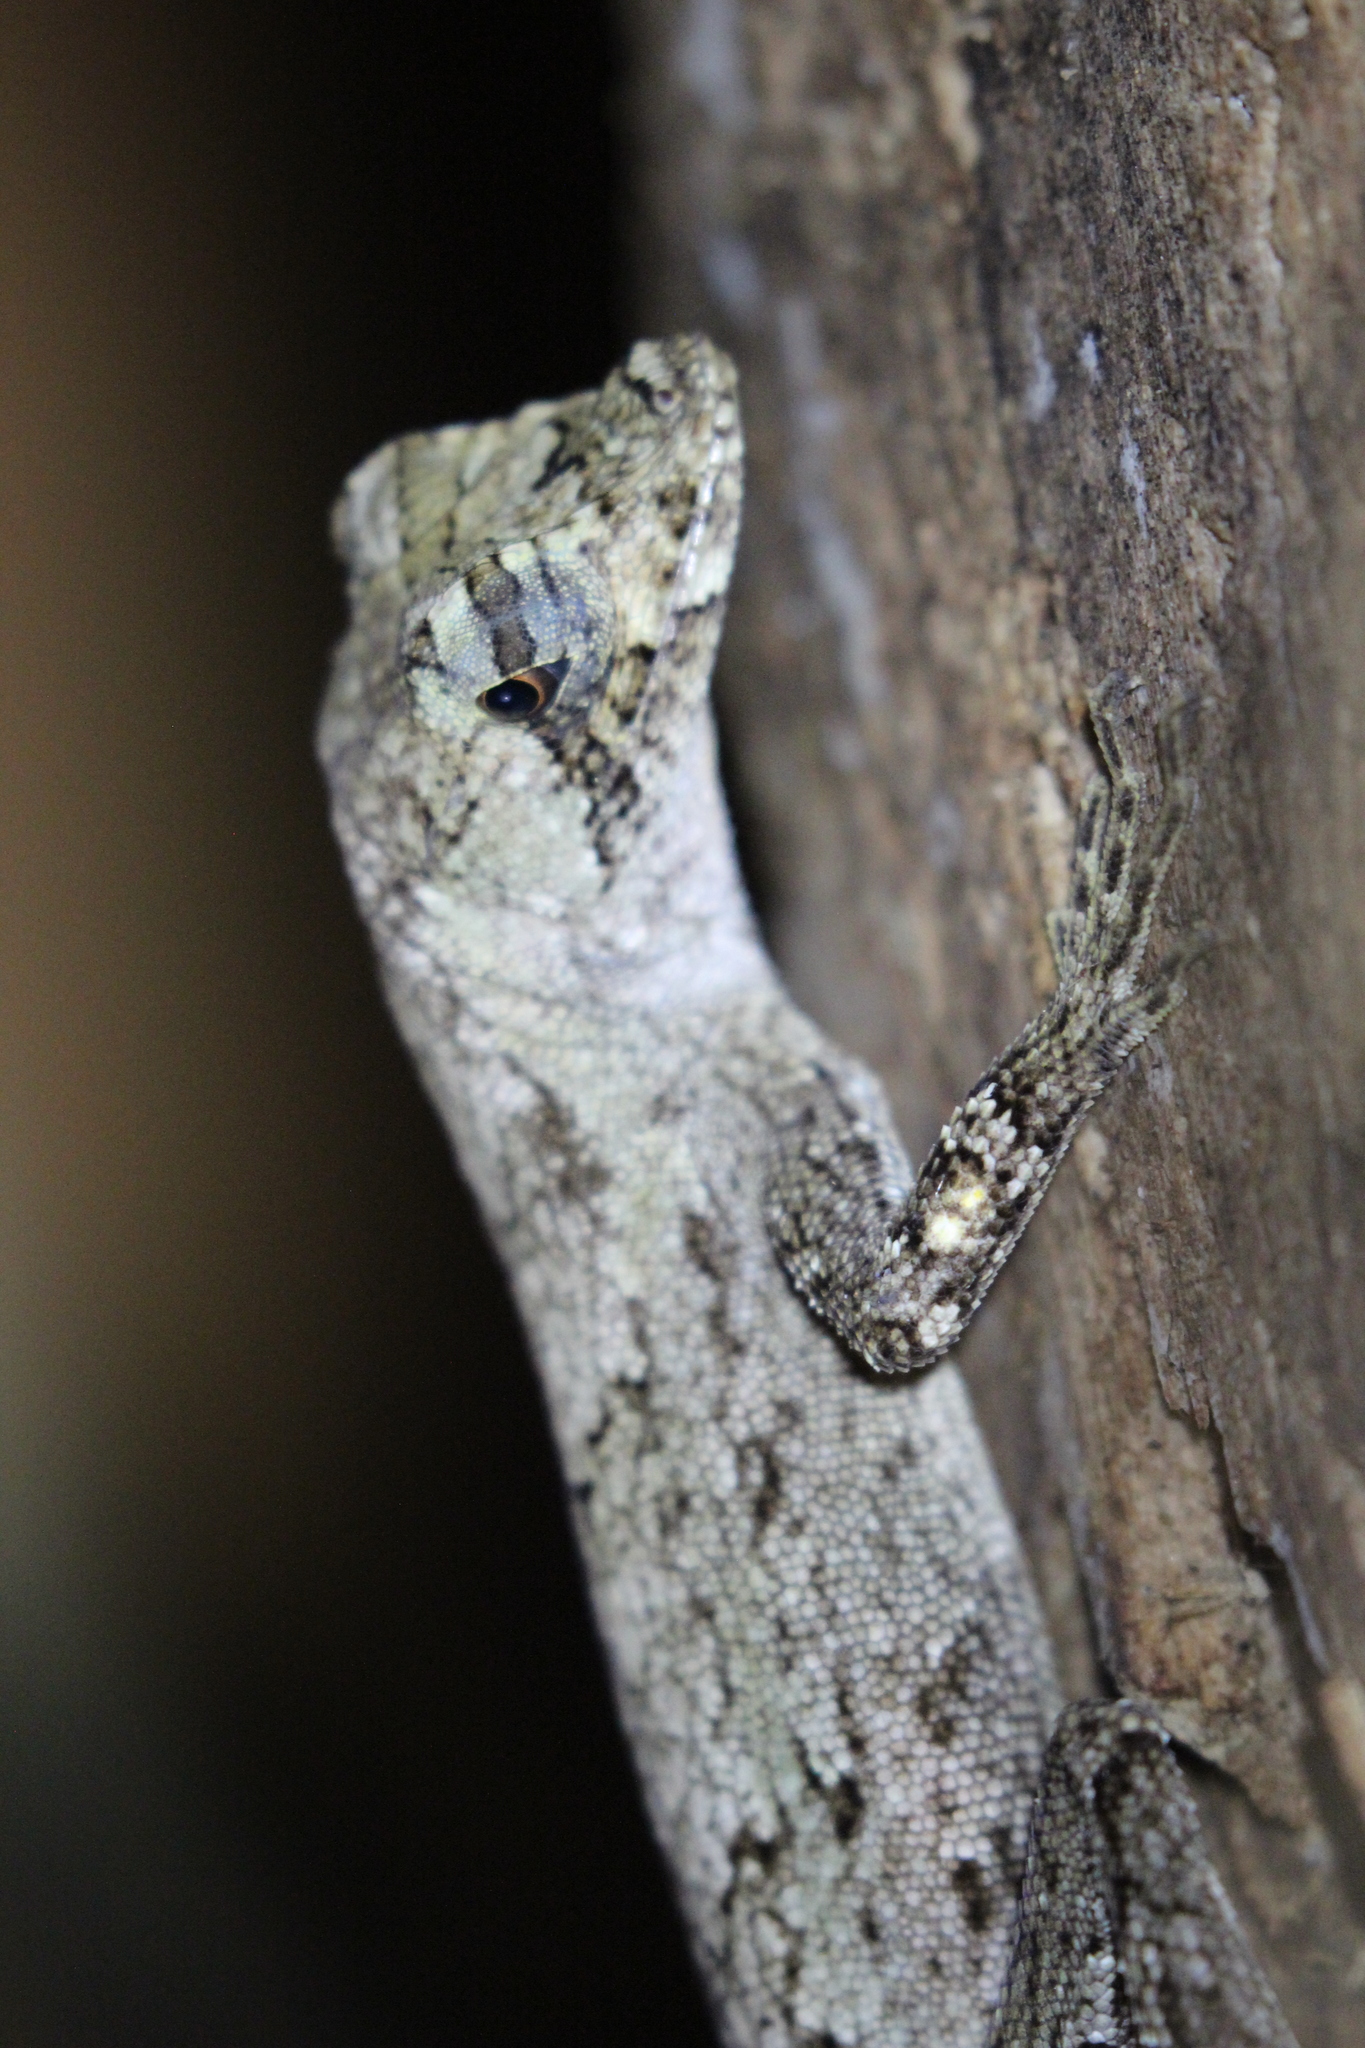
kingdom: Animalia
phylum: Chordata
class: Squamata
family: Dactyloidae
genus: Anolis
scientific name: Anolis capito
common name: Bighead anole
